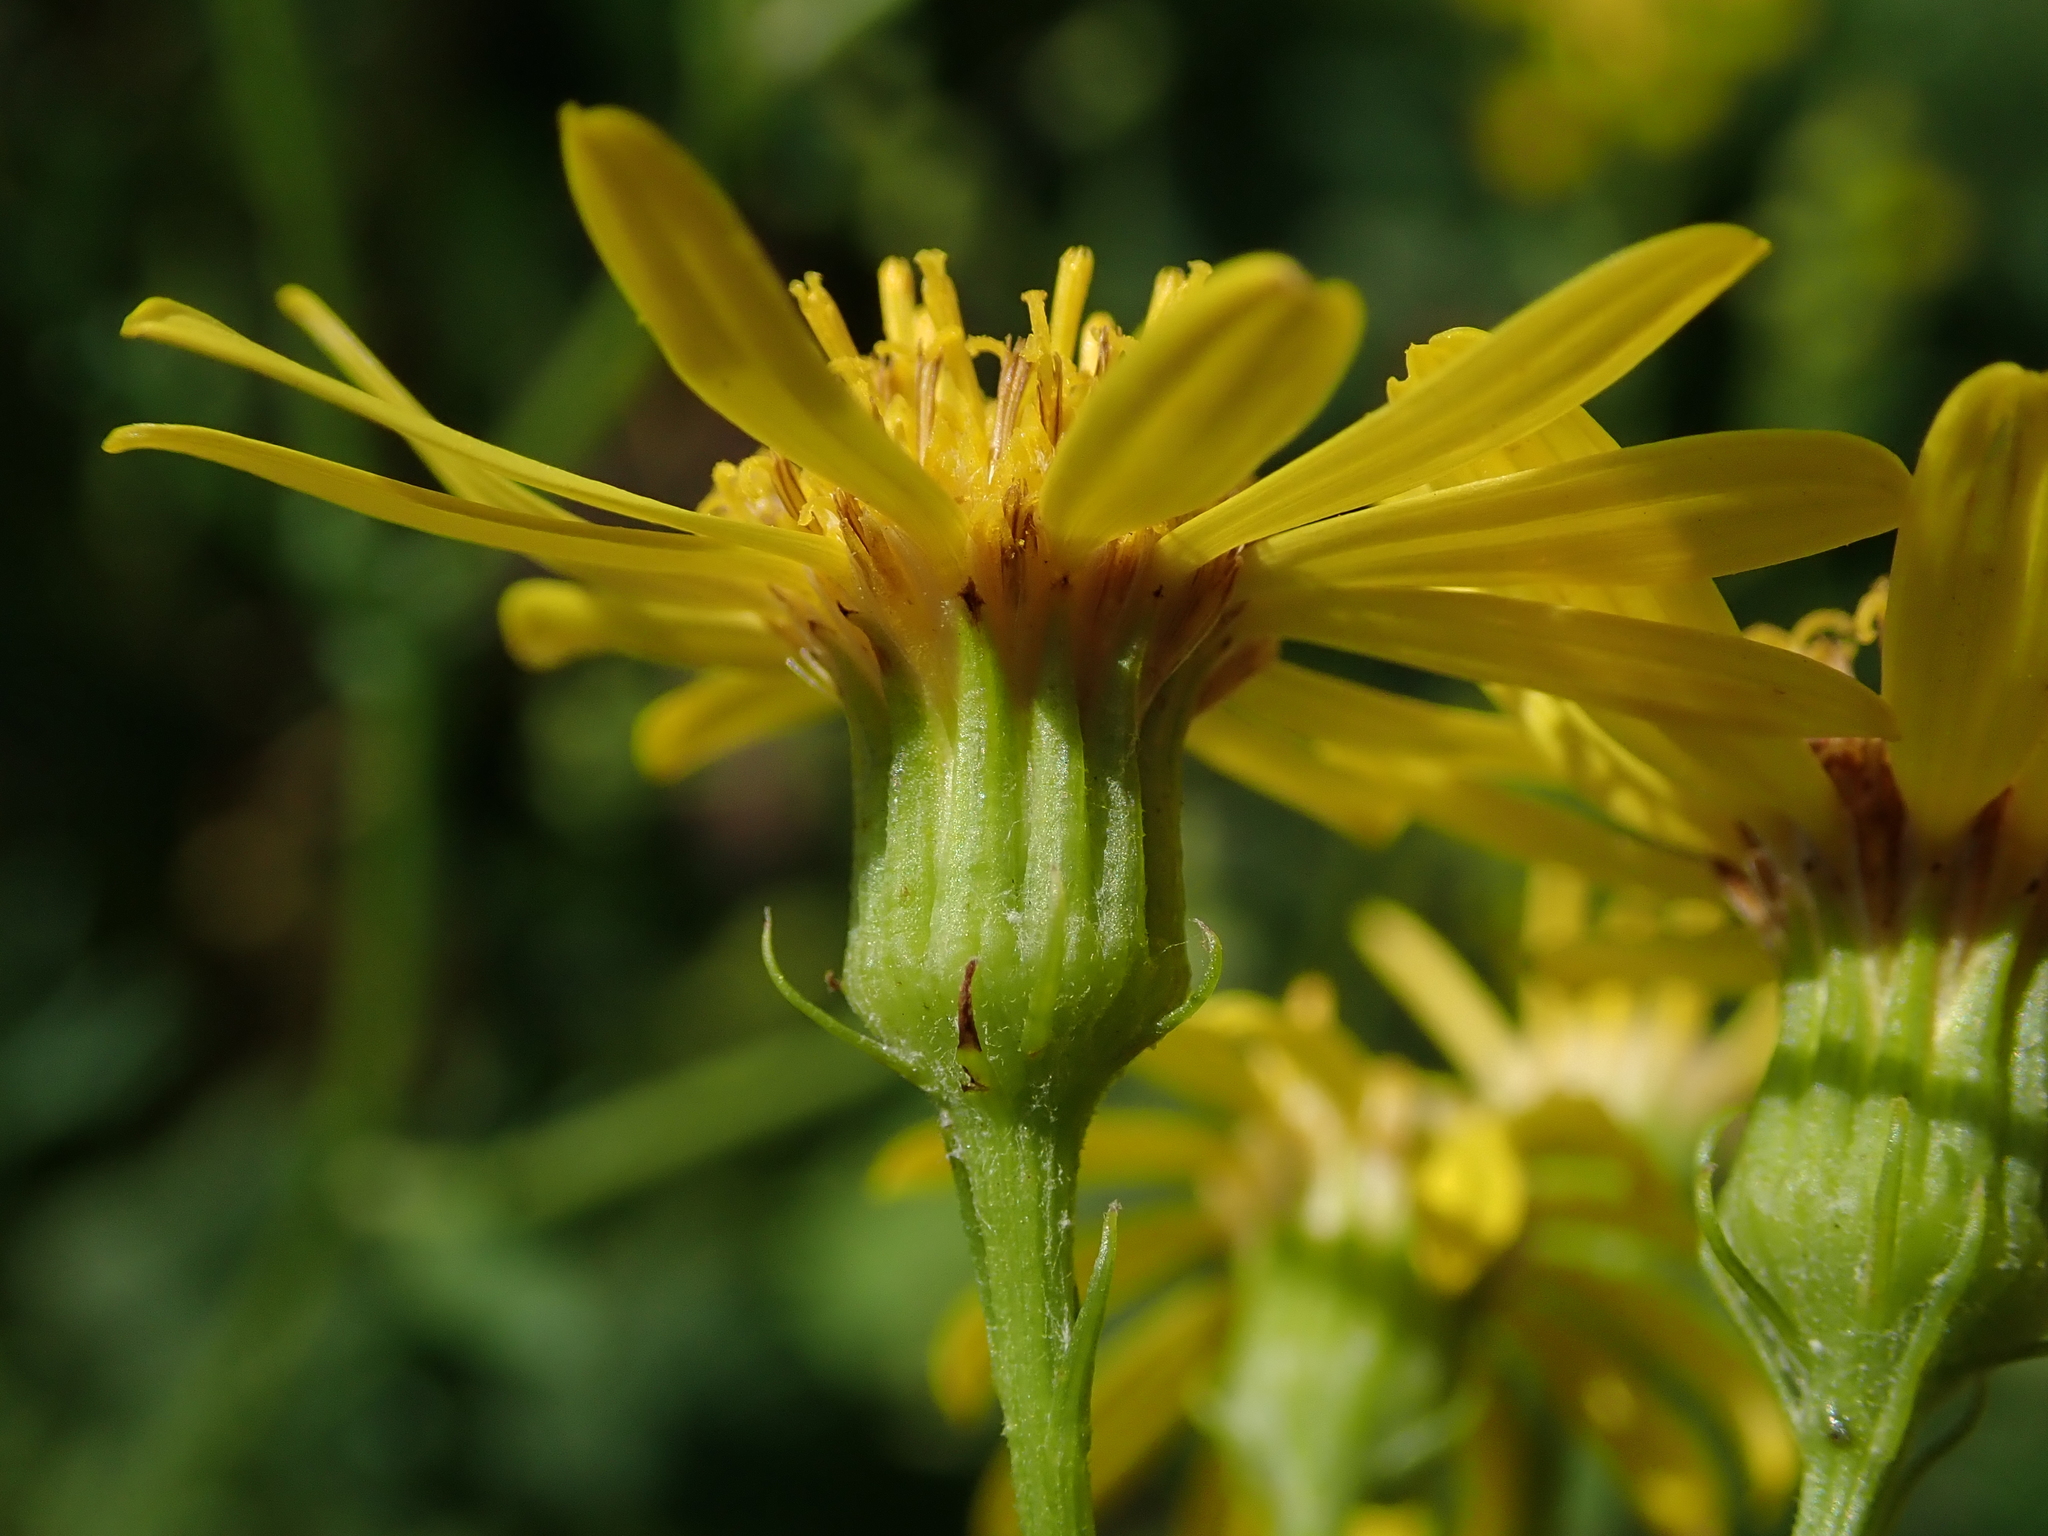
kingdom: Plantae
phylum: Tracheophyta
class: Magnoliopsida
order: Asterales
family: Asteraceae
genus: Jacobaea
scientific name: Jacobaea erucifolia
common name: Hoary ragwort
